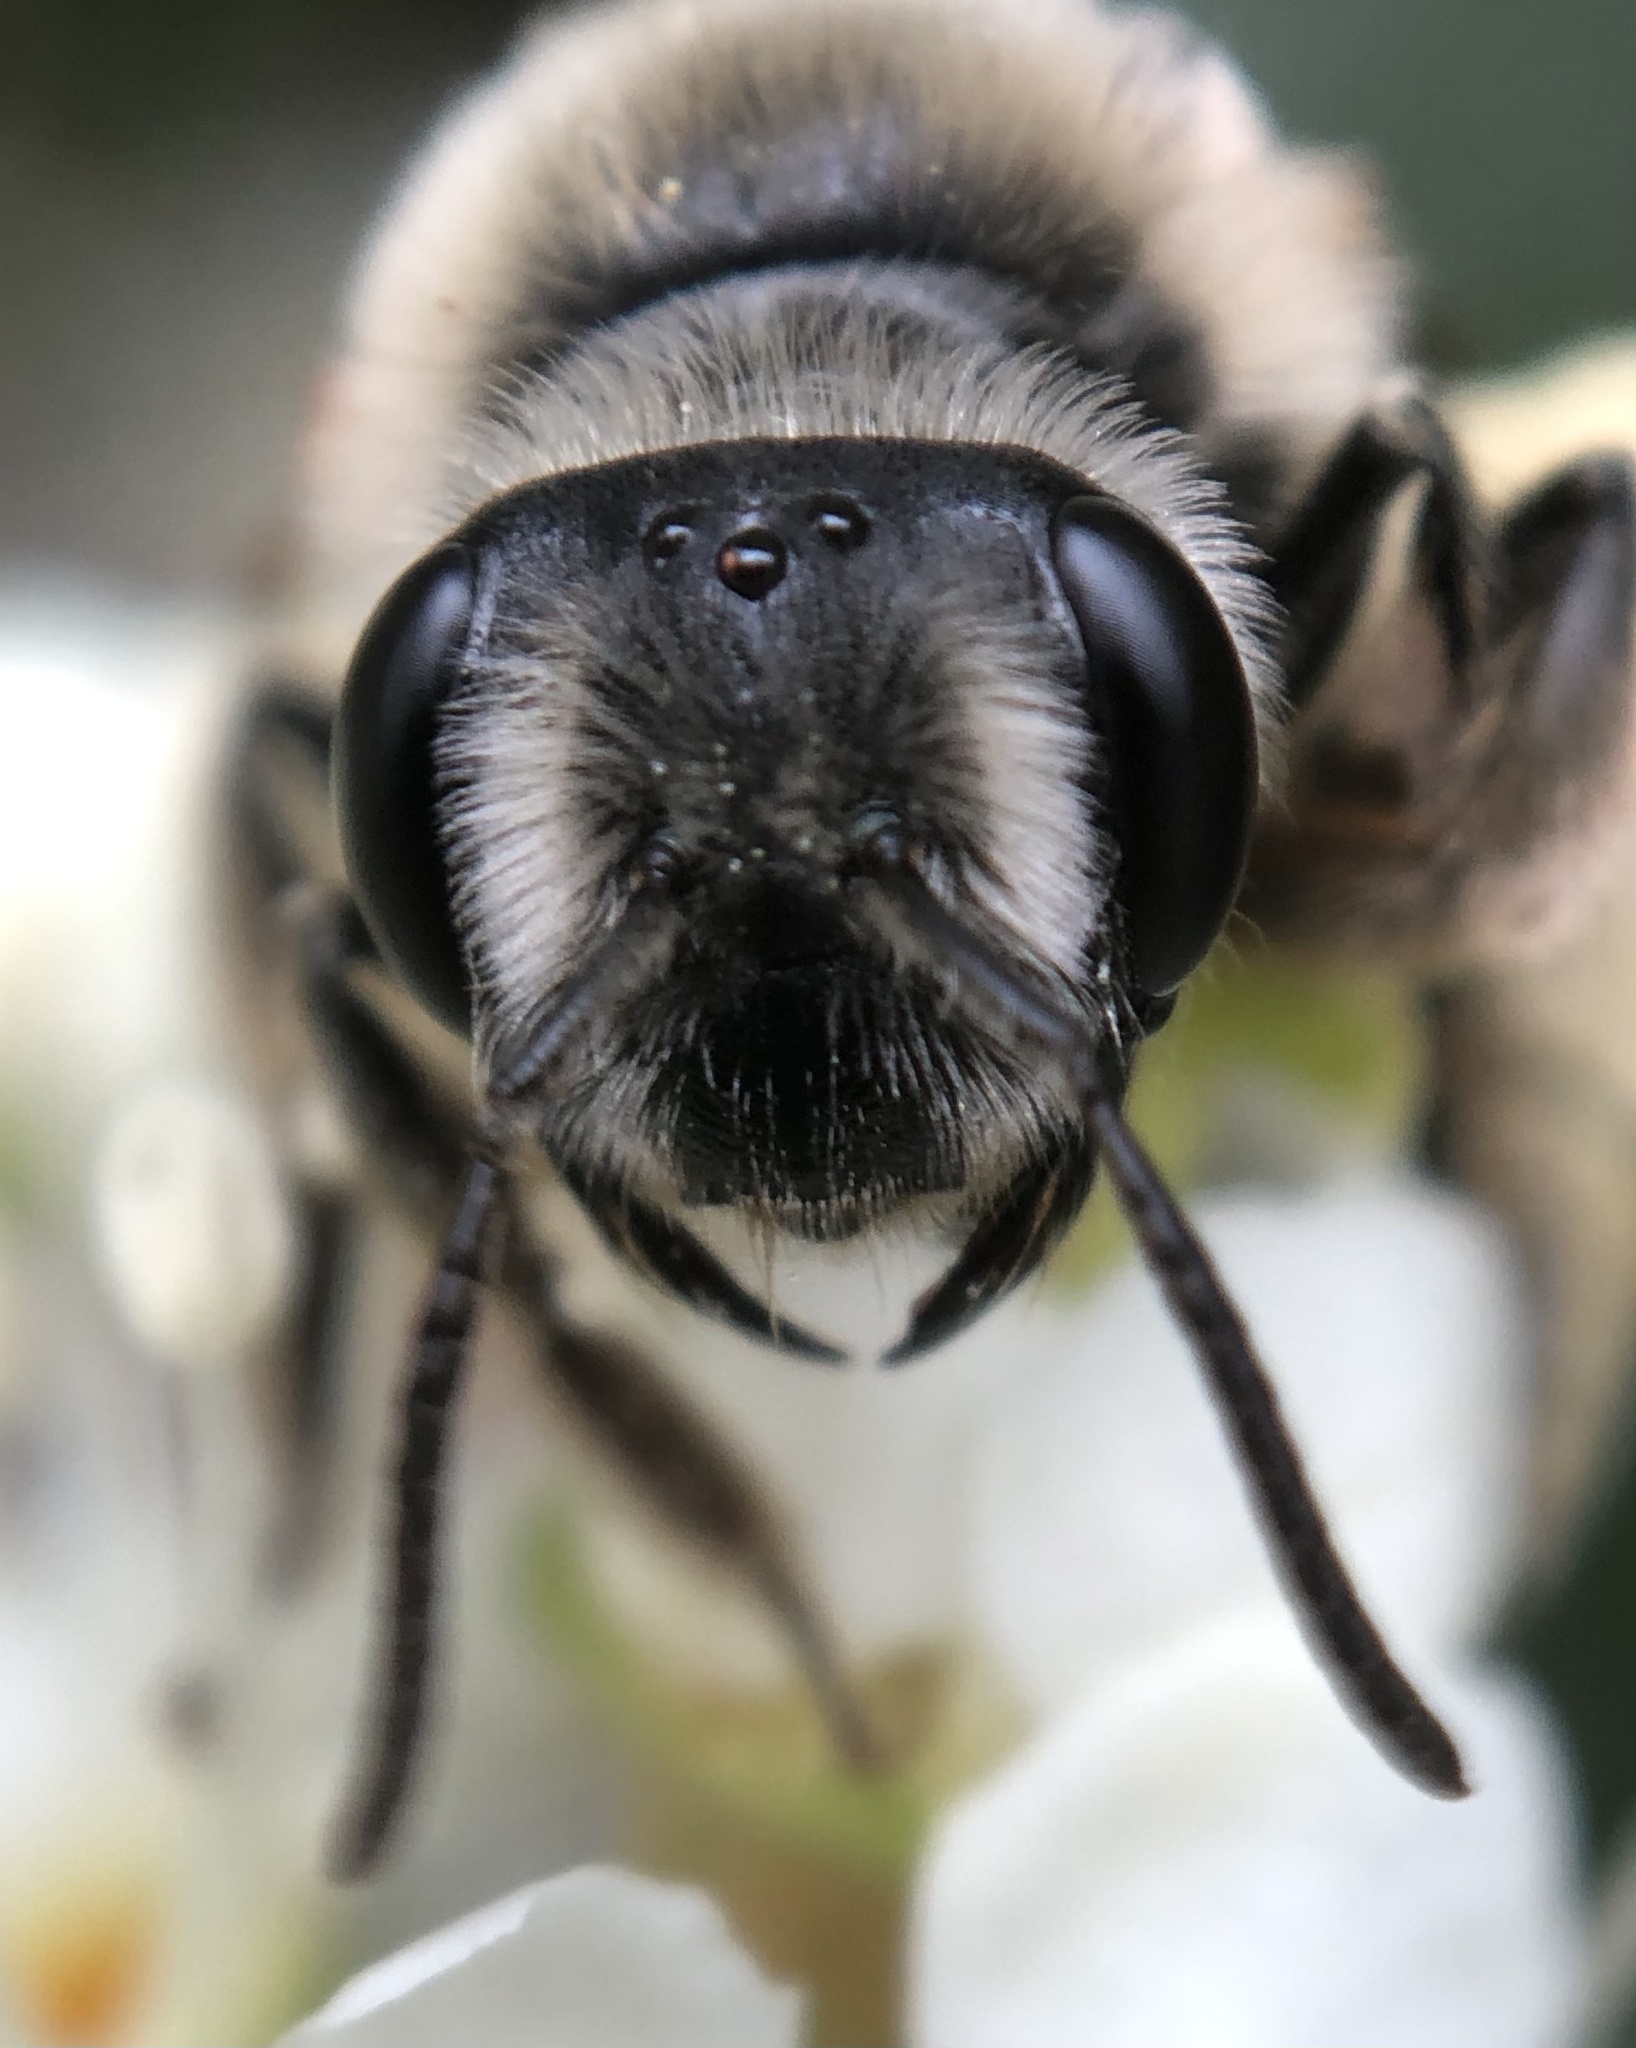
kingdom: Animalia
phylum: Arthropoda
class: Insecta
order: Hymenoptera
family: Andrenidae
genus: Andrena
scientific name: Andrena barbara
